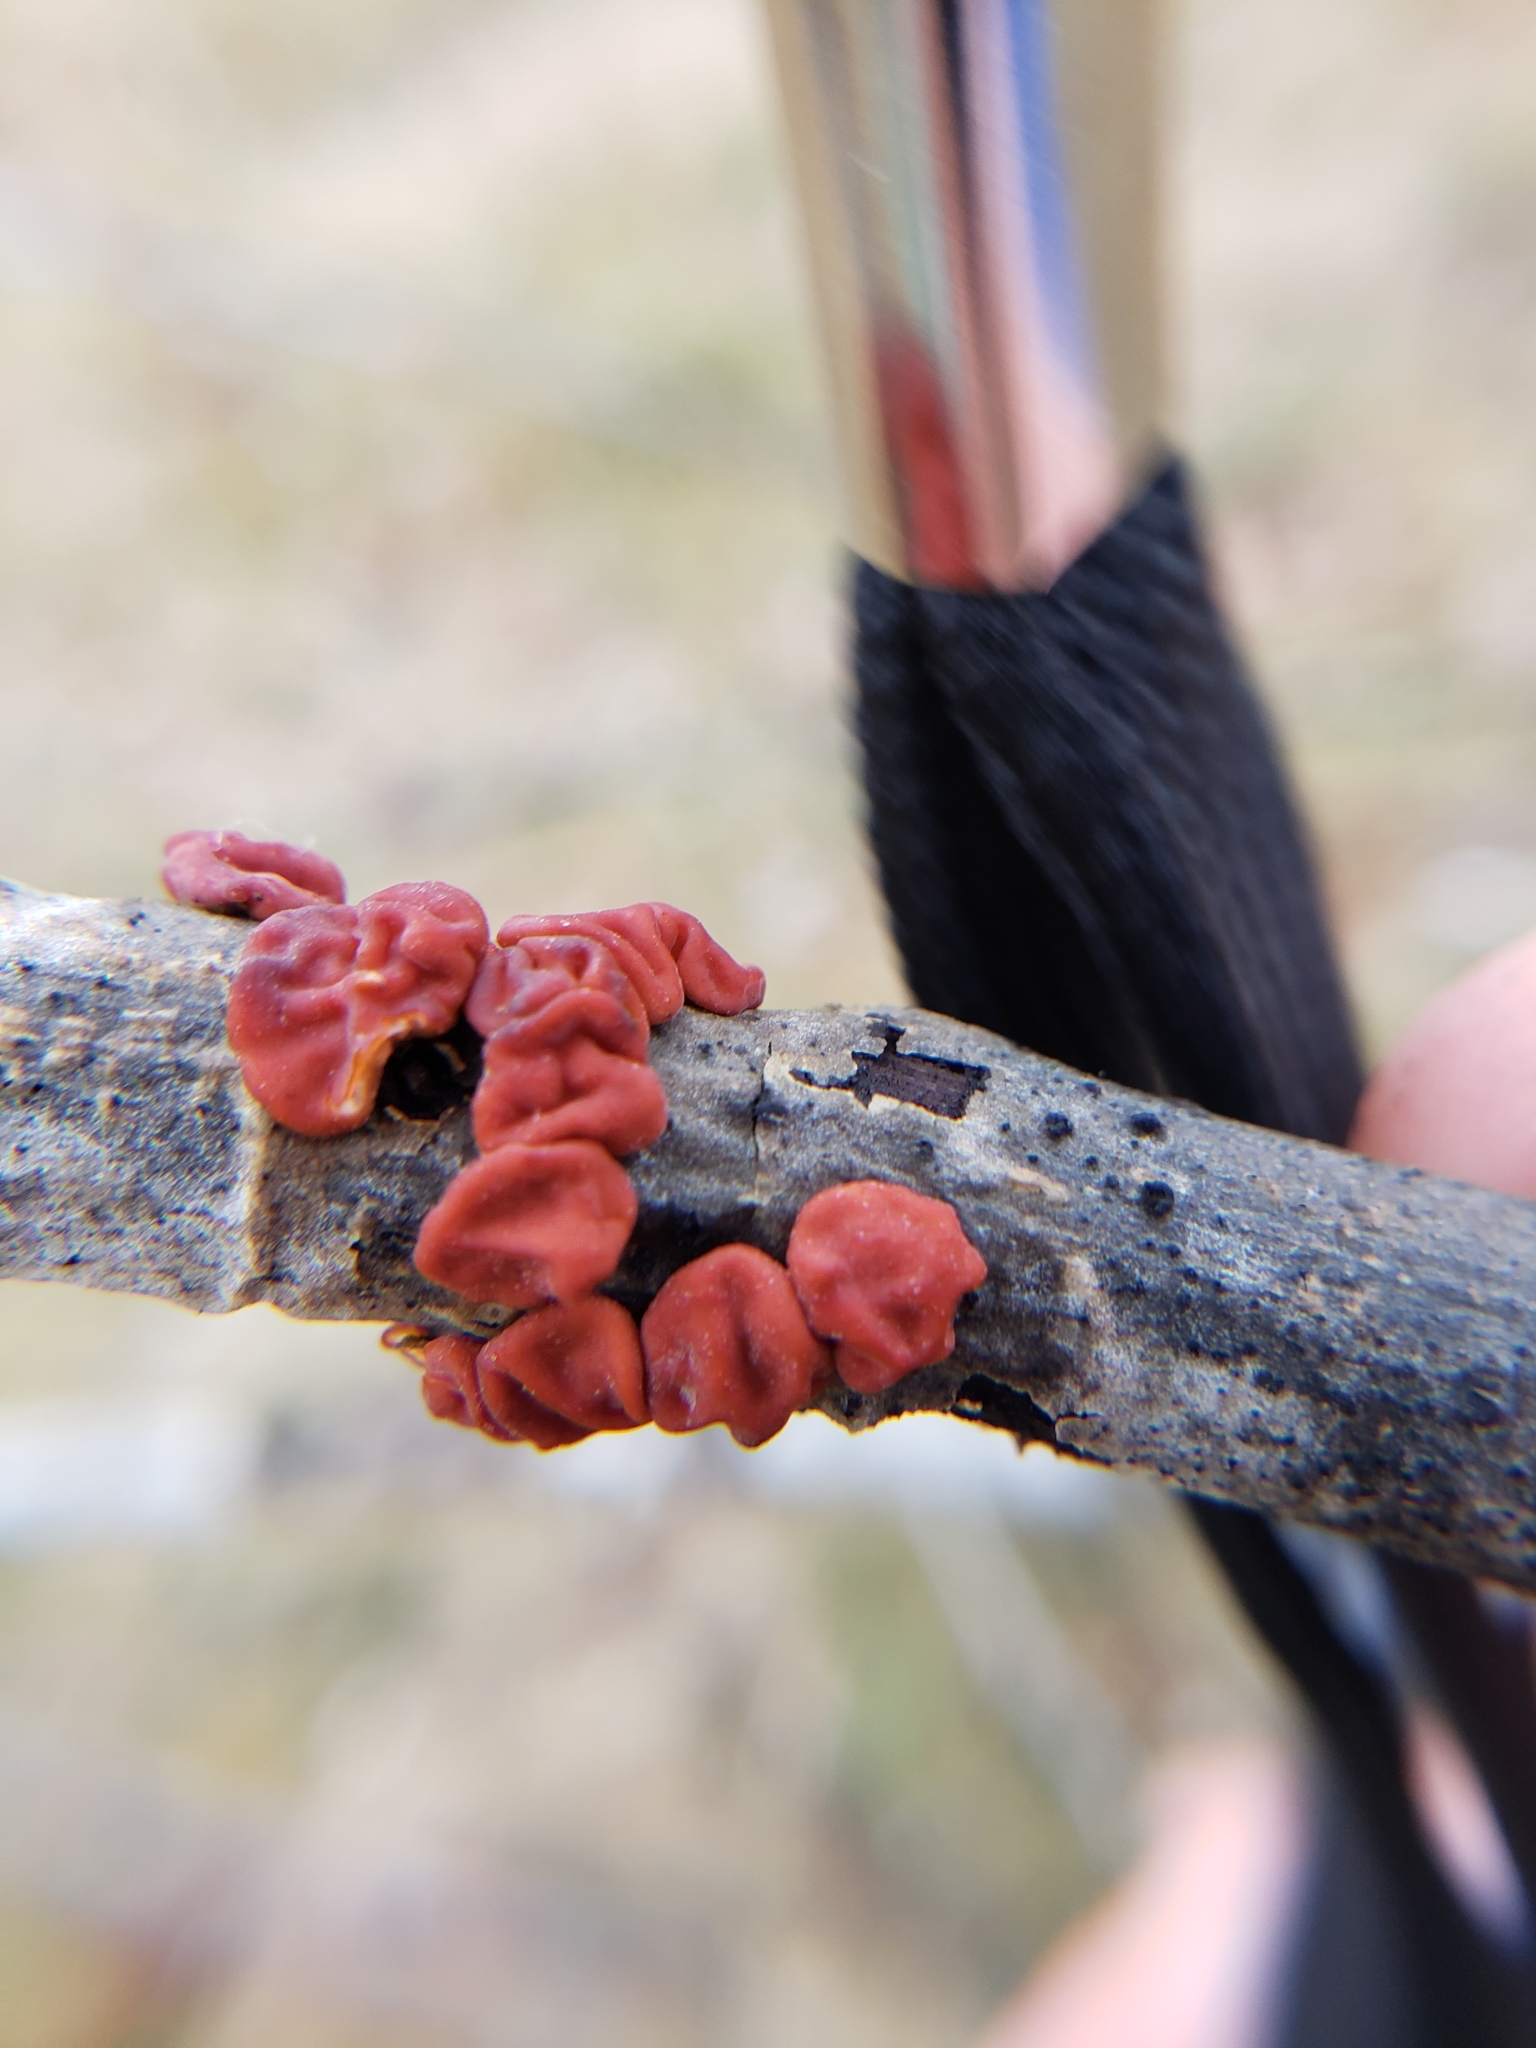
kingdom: Fungi
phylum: Basidiomycota
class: Agaricomycetes
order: Russulales
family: Peniophoraceae
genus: Peniophora
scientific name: Peniophora rufa
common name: Red tree brain fungus
